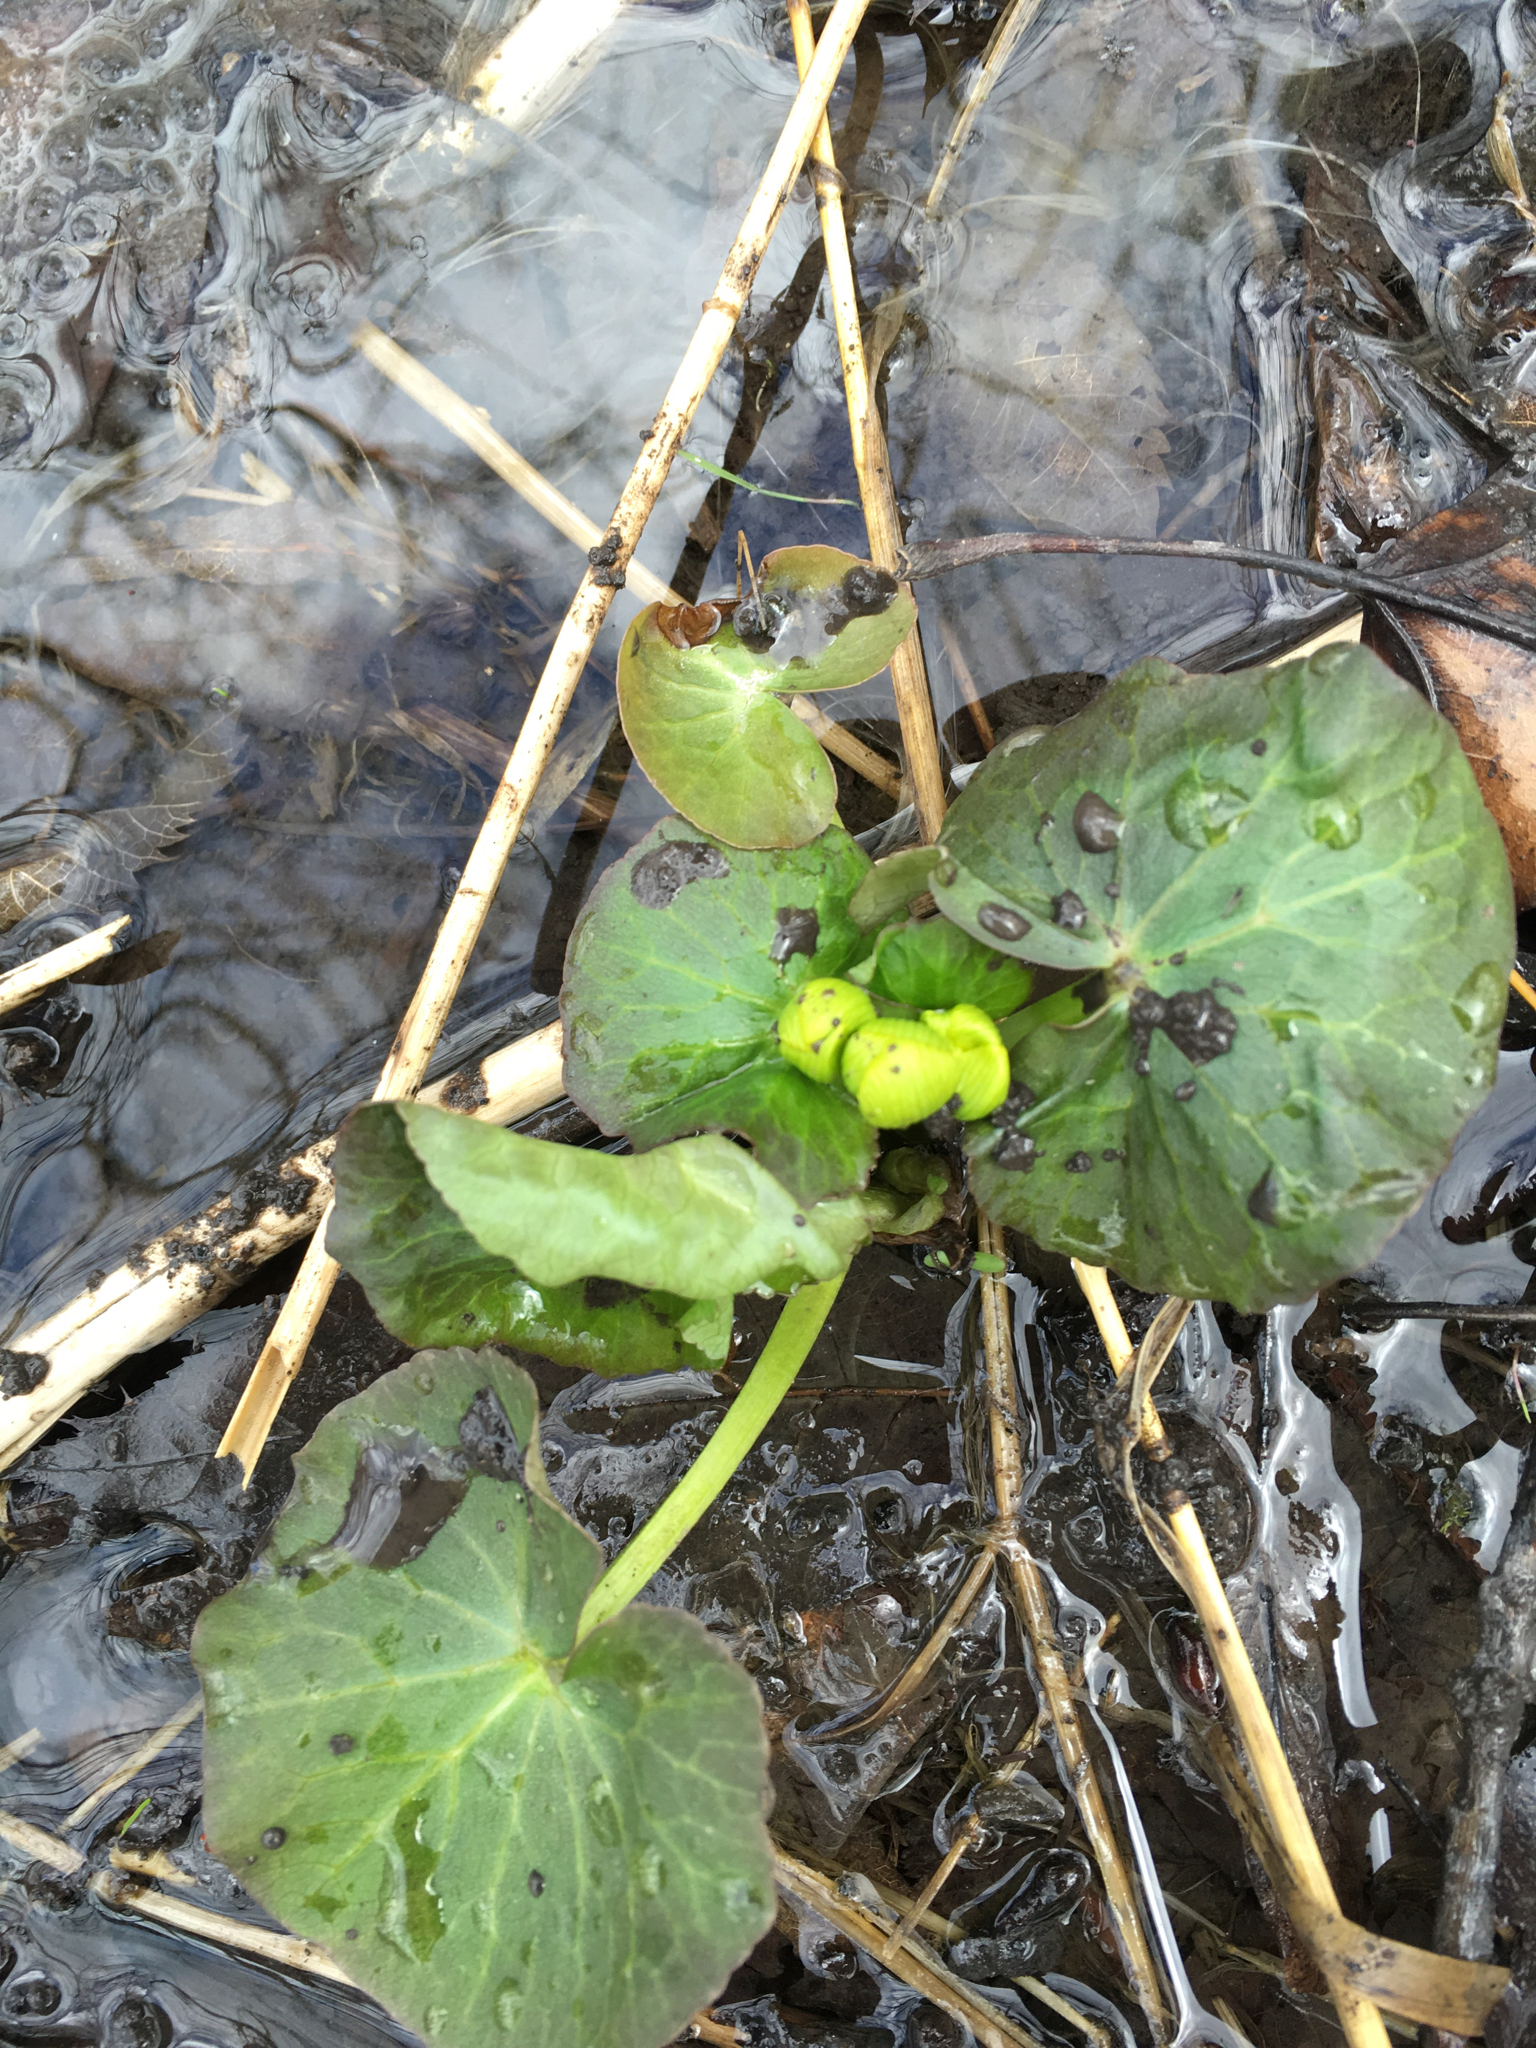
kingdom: Plantae
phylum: Tracheophyta
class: Magnoliopsida
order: Ranunculales
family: Ranunculaceae
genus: Caltha
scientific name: Caltha palustris
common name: Marsh marigold
